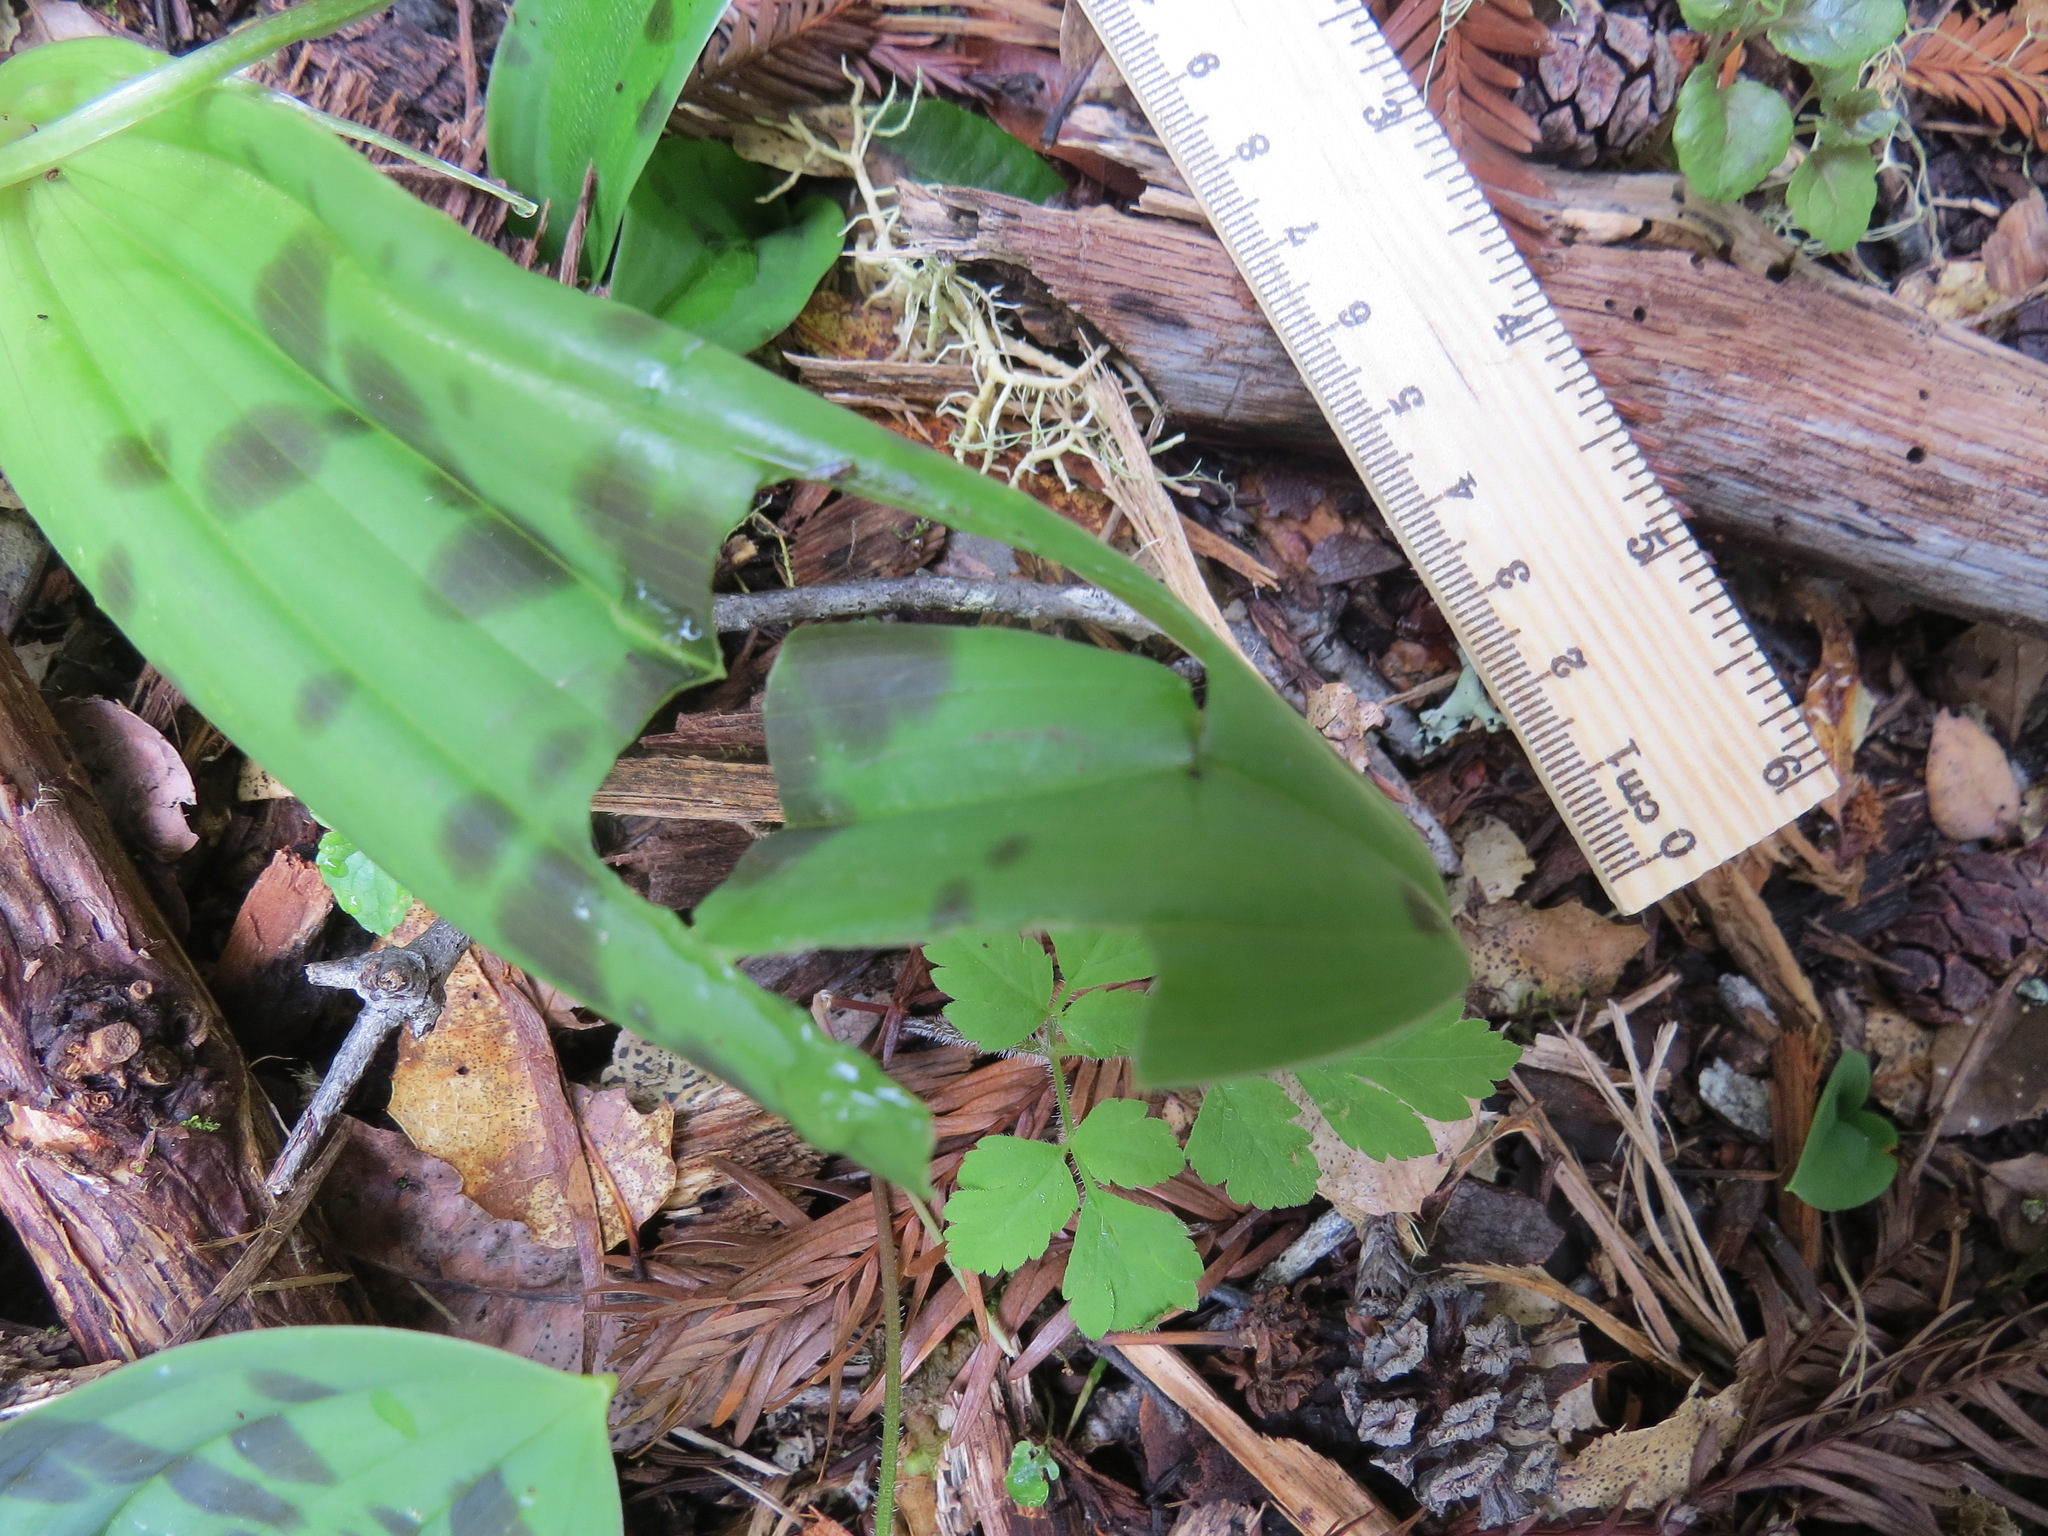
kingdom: Plantae
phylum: Tracheophyta
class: Liliopsida
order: Liliales
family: Liliaceae
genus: Scoliopus
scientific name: Scoliopus bigelovii
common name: Foetid adder's-tongue
